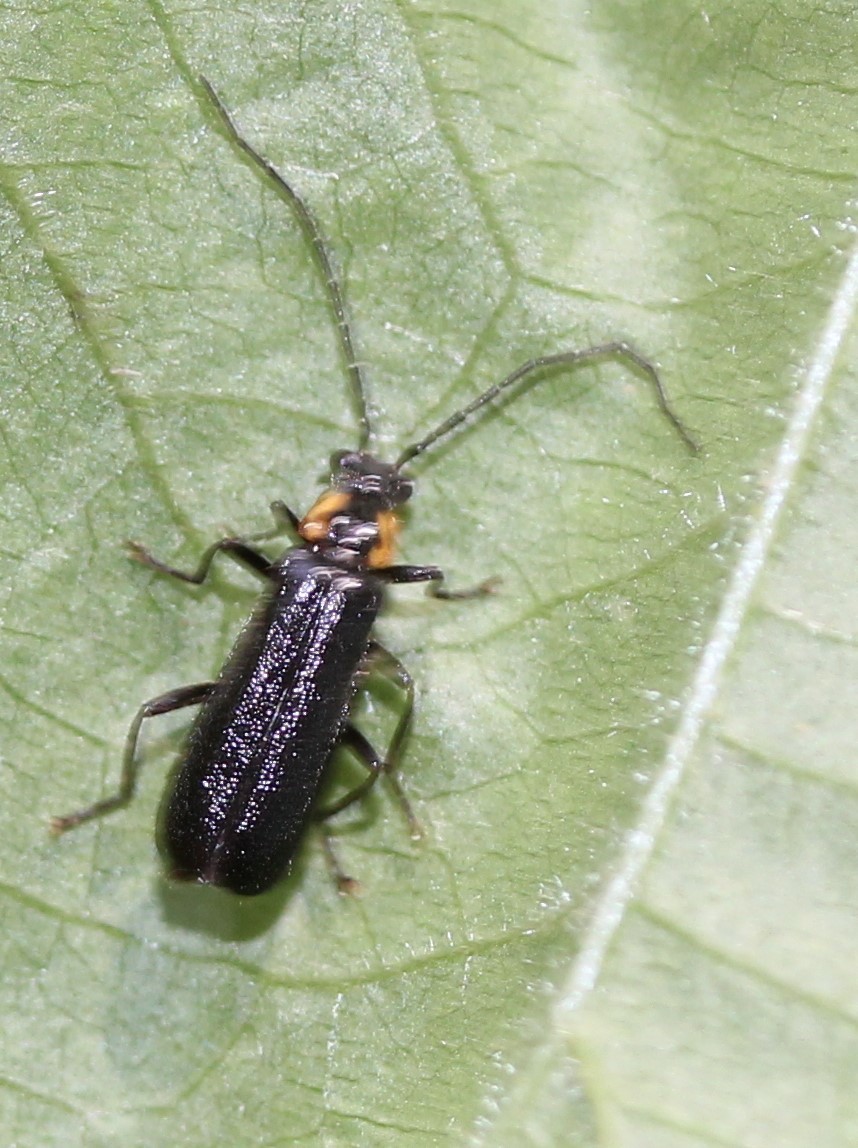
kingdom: Animalia
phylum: Arthropoda
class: Insecta
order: Coleoptera
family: Cantharidae
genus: Rhagonycha
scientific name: Rhagonycha angulata
